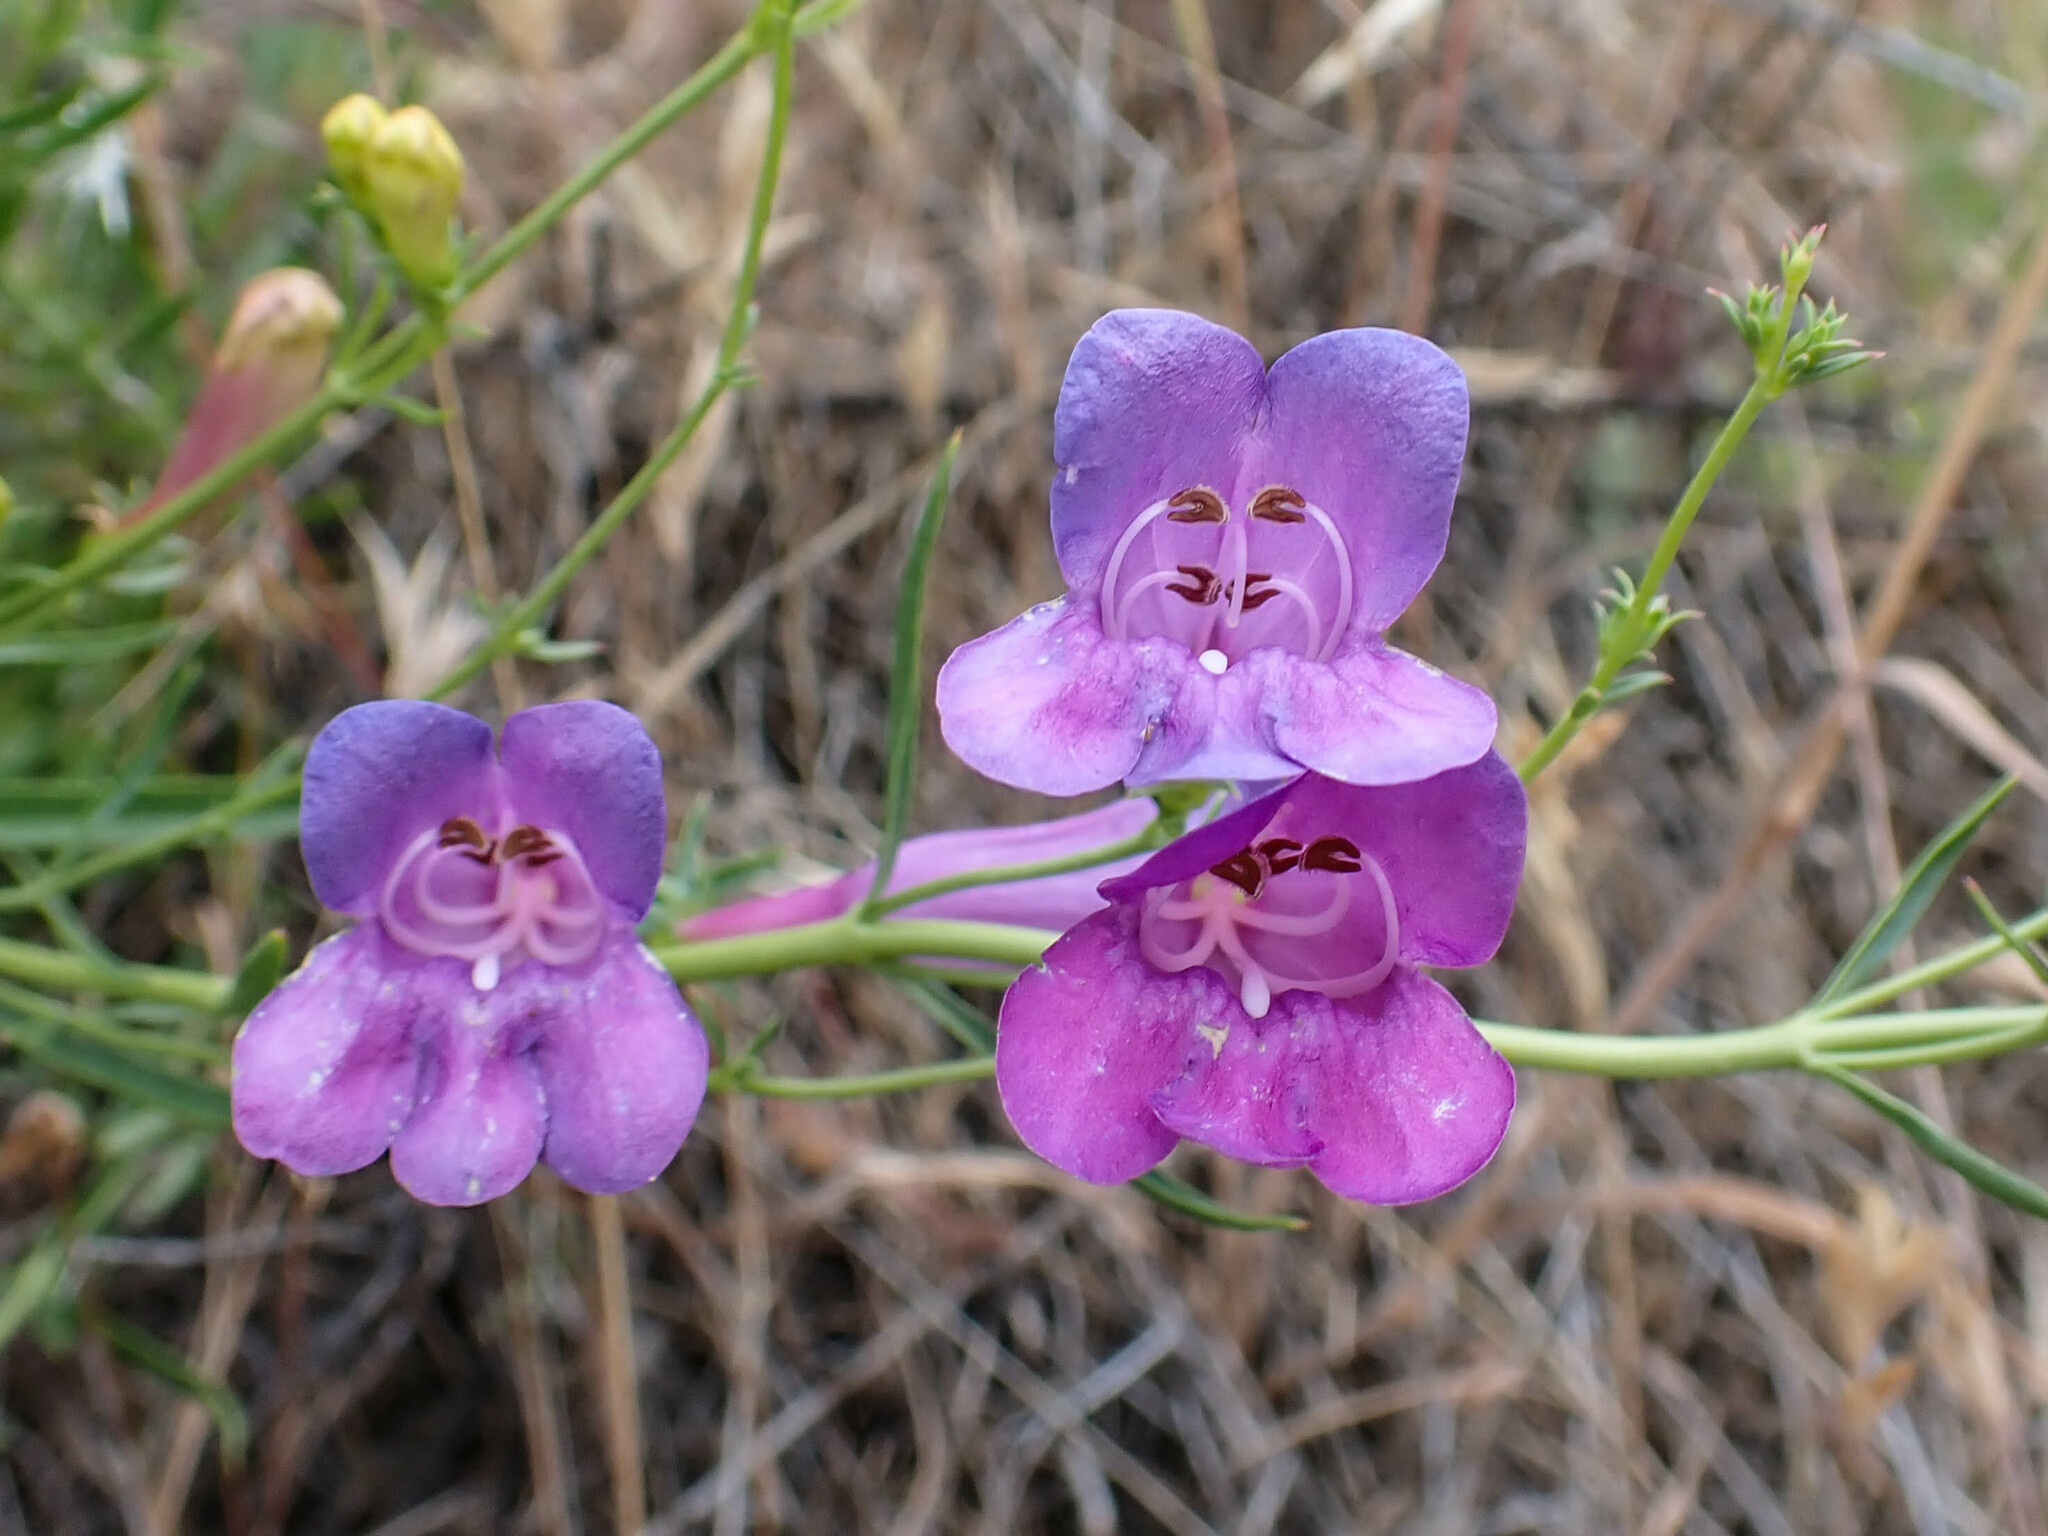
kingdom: Plantae
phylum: Tracheophyta
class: Magnoliopsida
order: Lamiales
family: Plantaginaceae
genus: Penstemon
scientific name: Penstemon heterophyllus
